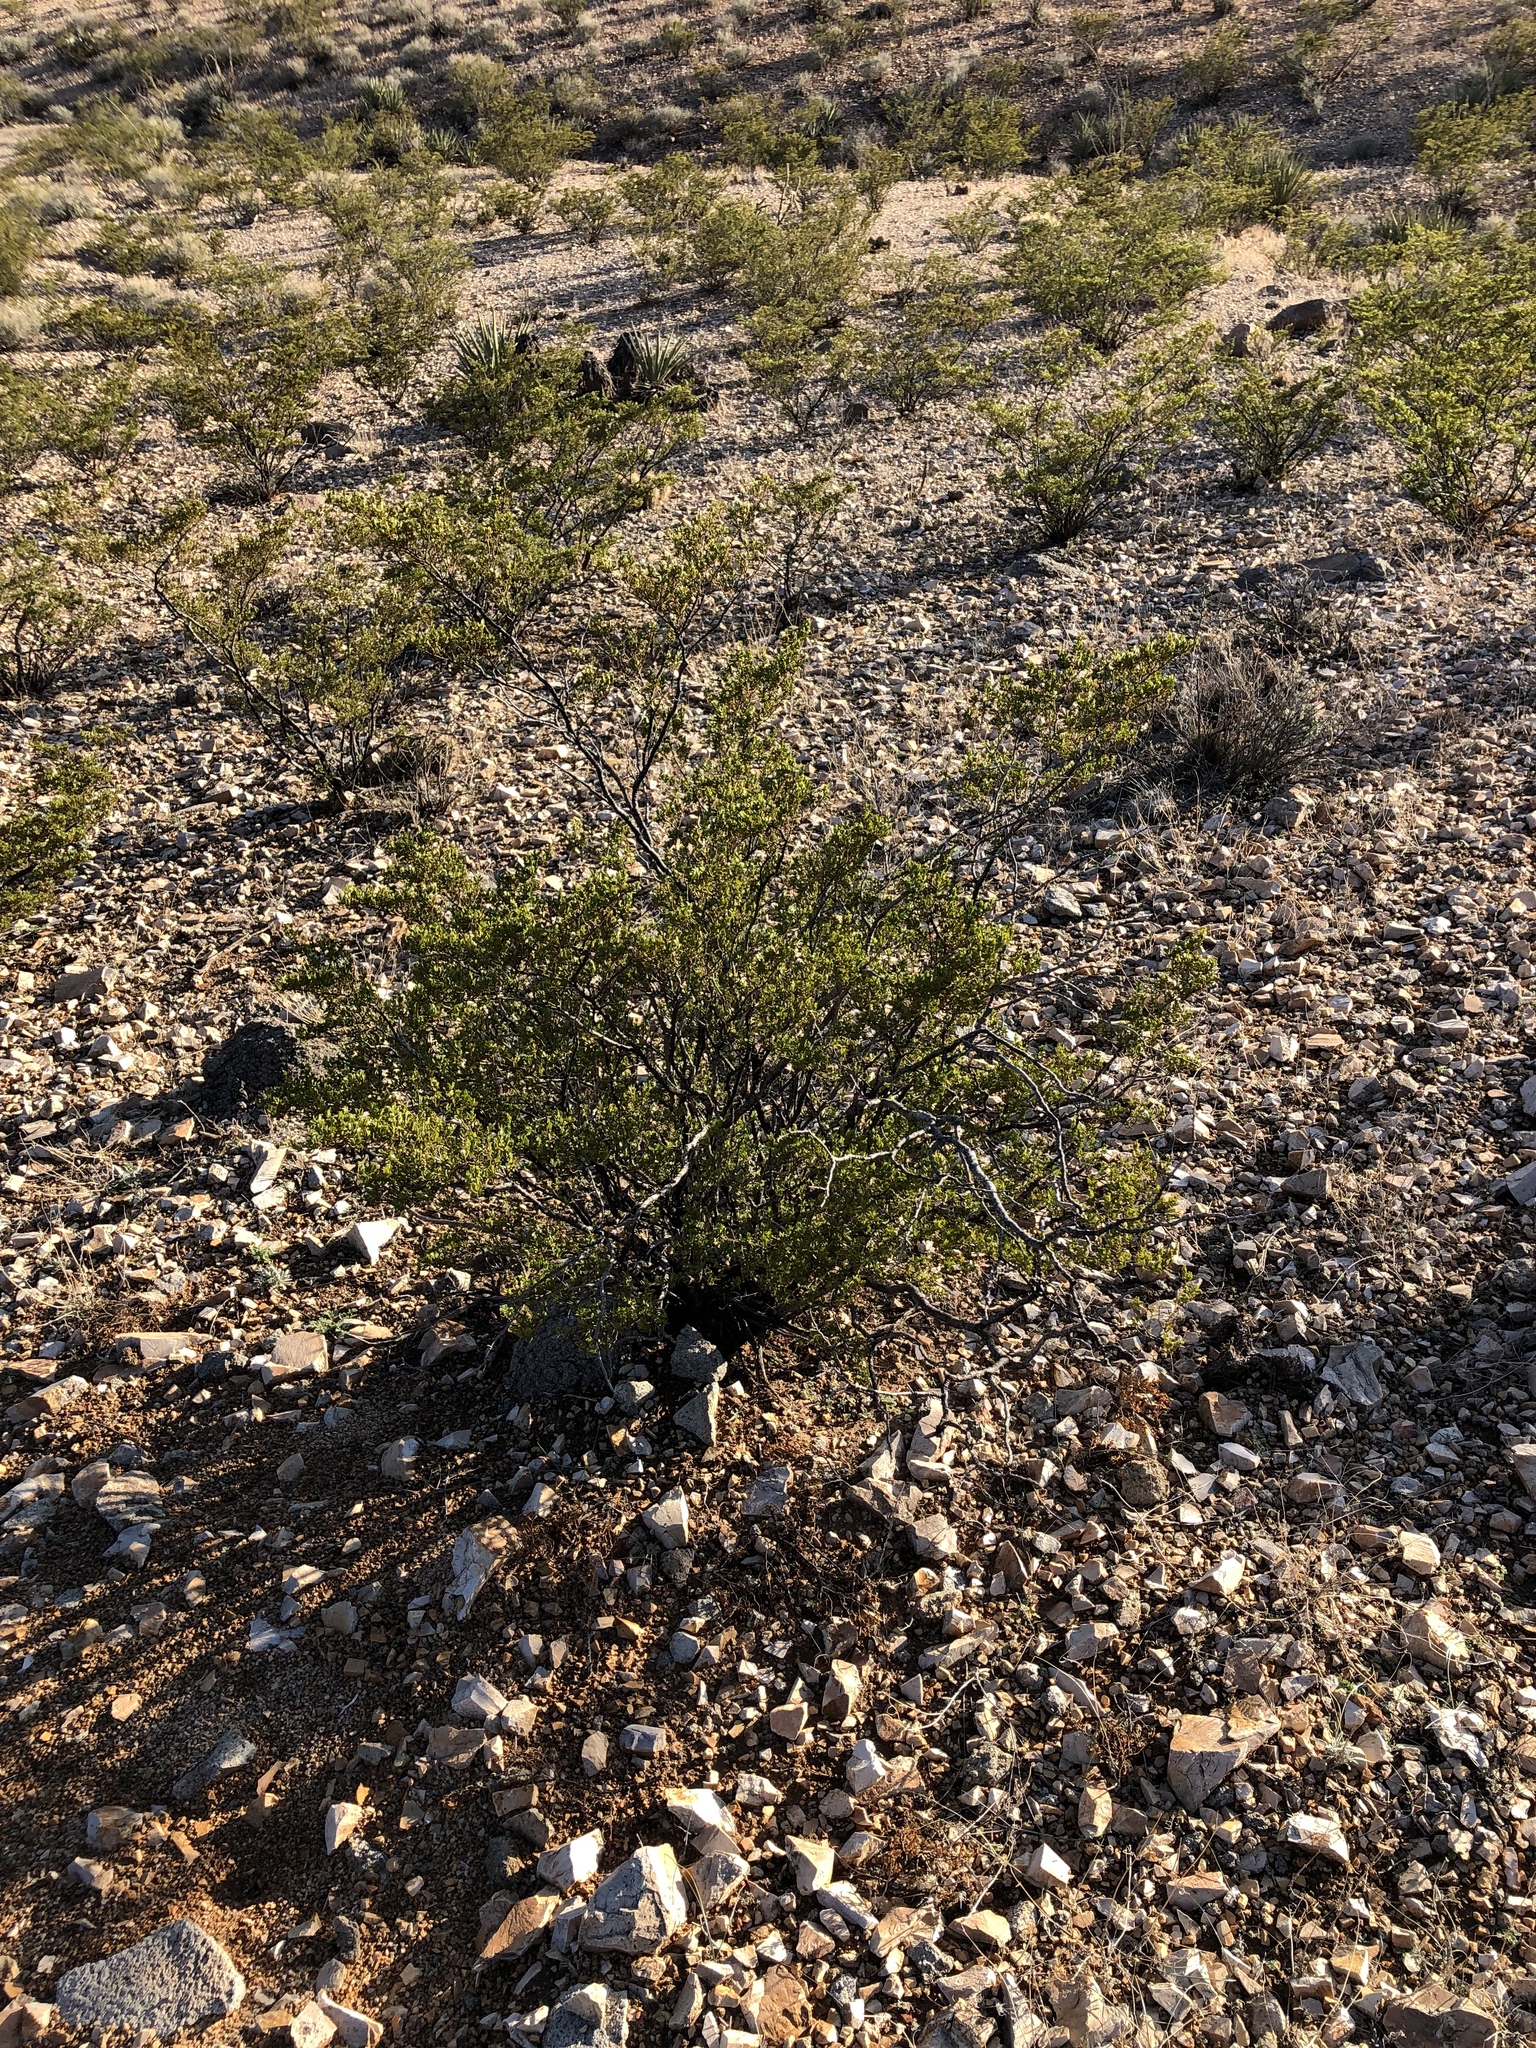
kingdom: Plantae
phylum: Tracheophyta
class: Magnoliopsida
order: Zygophyllales
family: Zygophyllaceae
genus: Larrea
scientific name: Larrea tridentata
